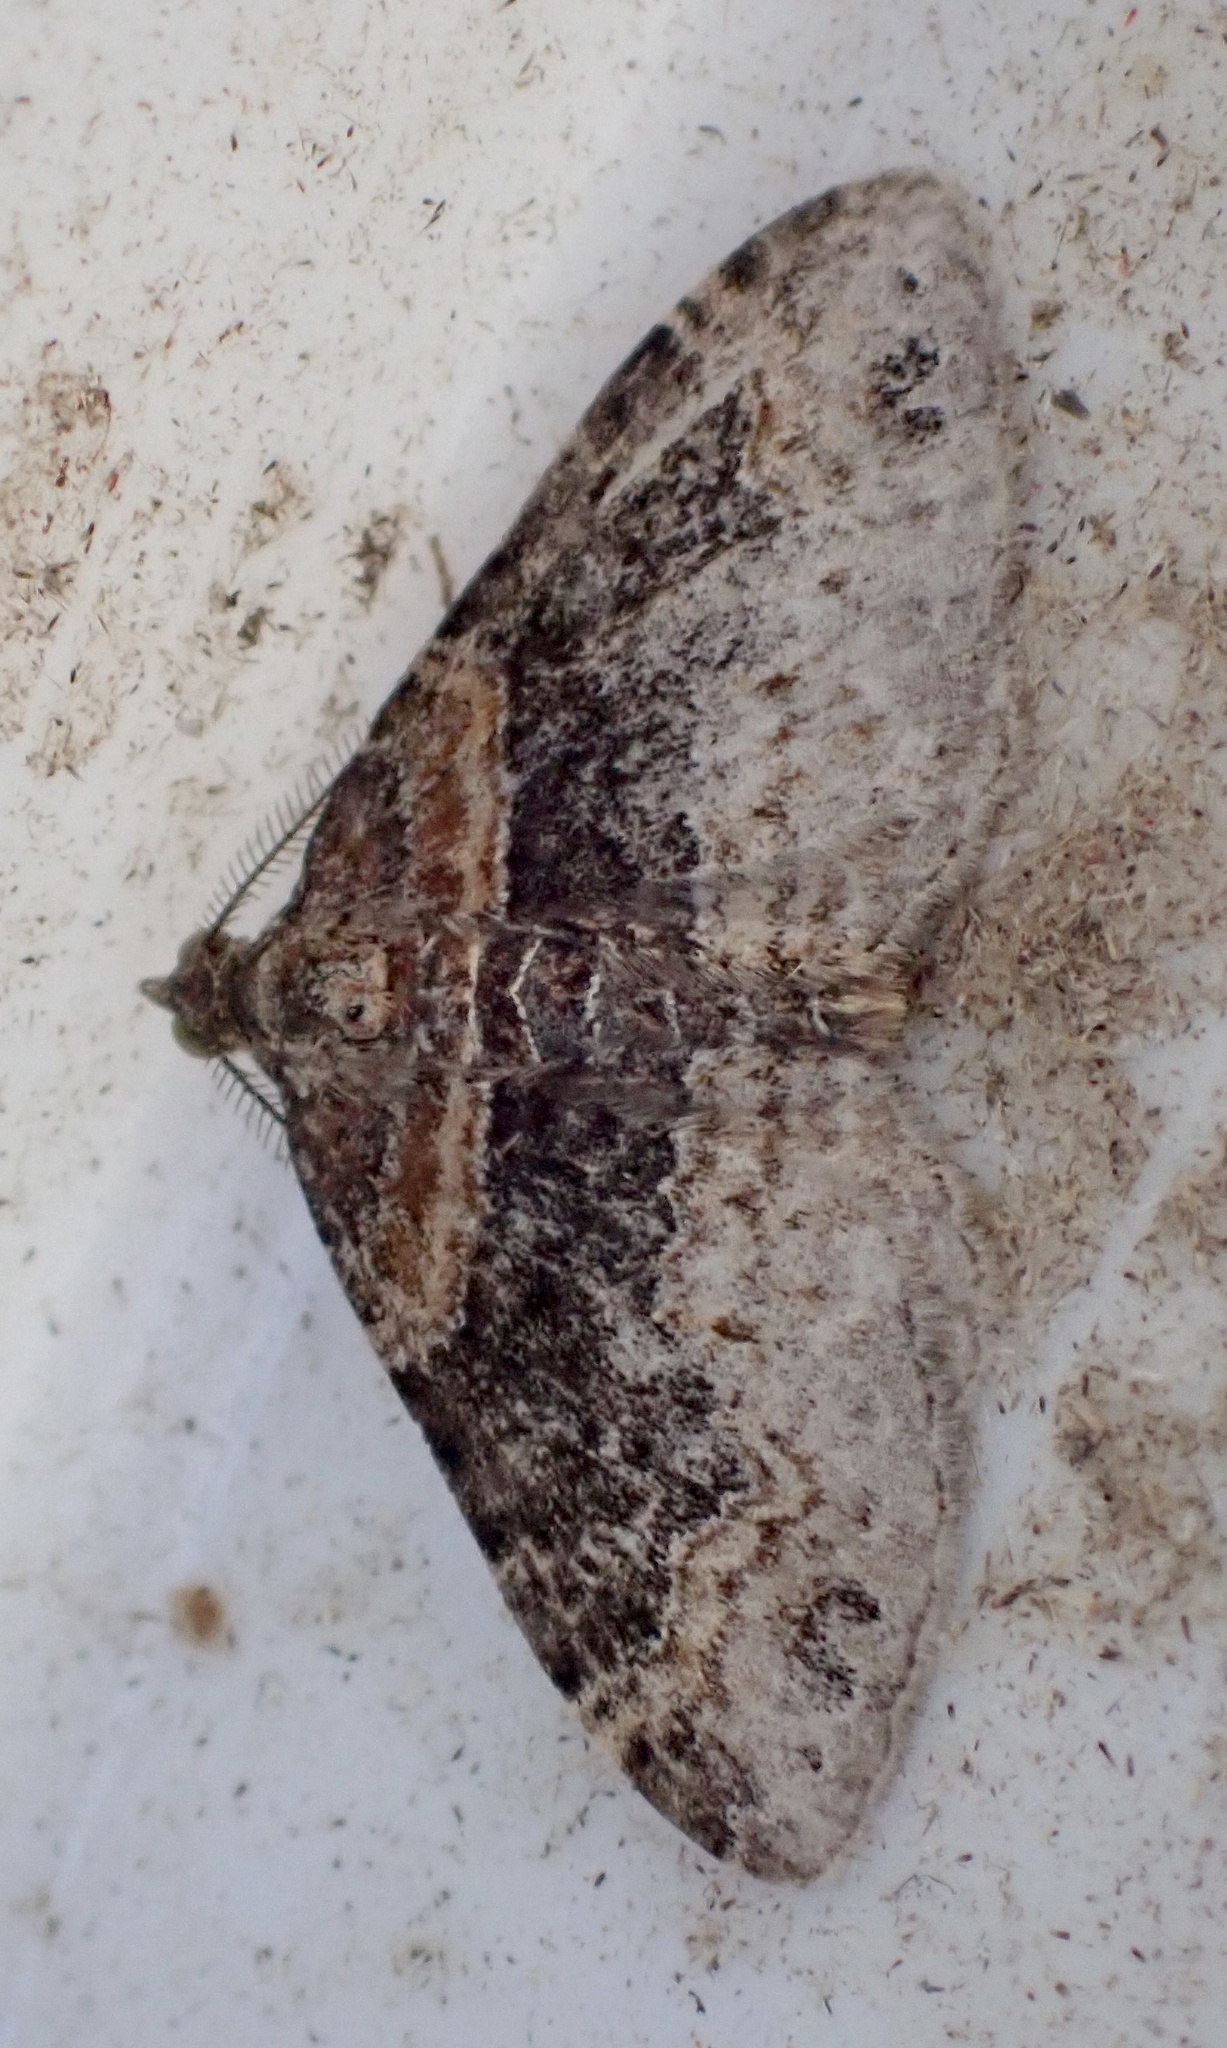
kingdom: Animalia
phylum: Arthropoda
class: Insecta
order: Lepidoptera
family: Geometridae
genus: Xanthorhoe
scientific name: Xanthorhoe ferrugata
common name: Dark-barred twin-spot carpet
